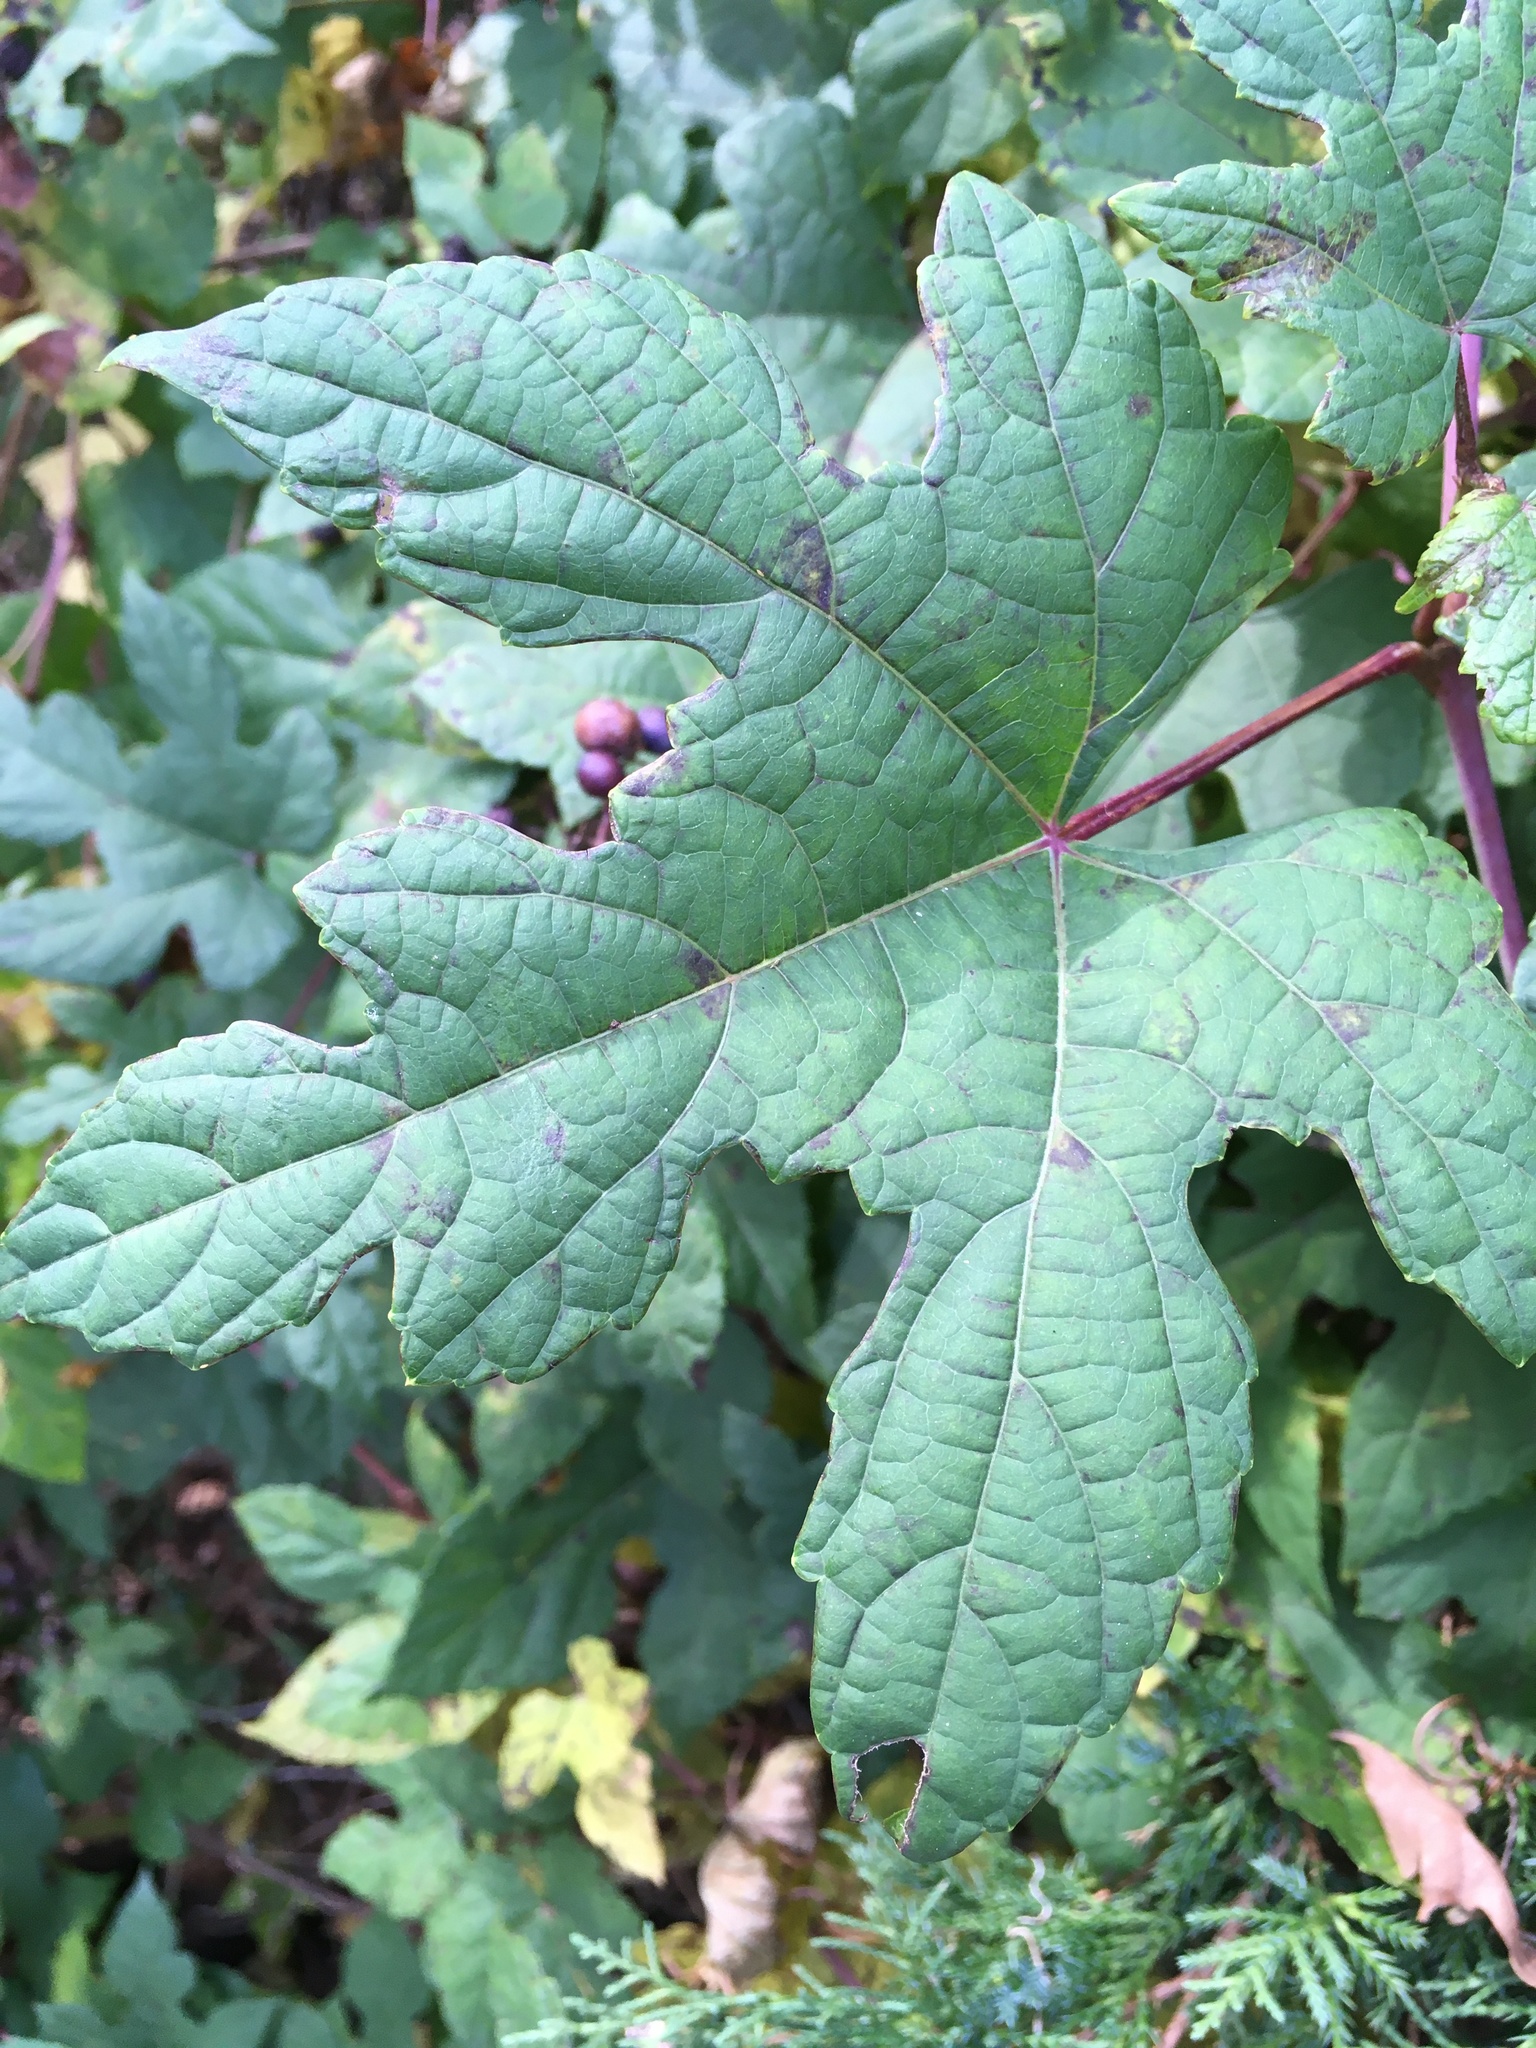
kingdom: Plantae
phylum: Tracheophyta
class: Magnoliopsida
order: Vitales
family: Vitaceae
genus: Ampelopsis
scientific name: Ampelopsis glandulosa
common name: Amur peppervine
